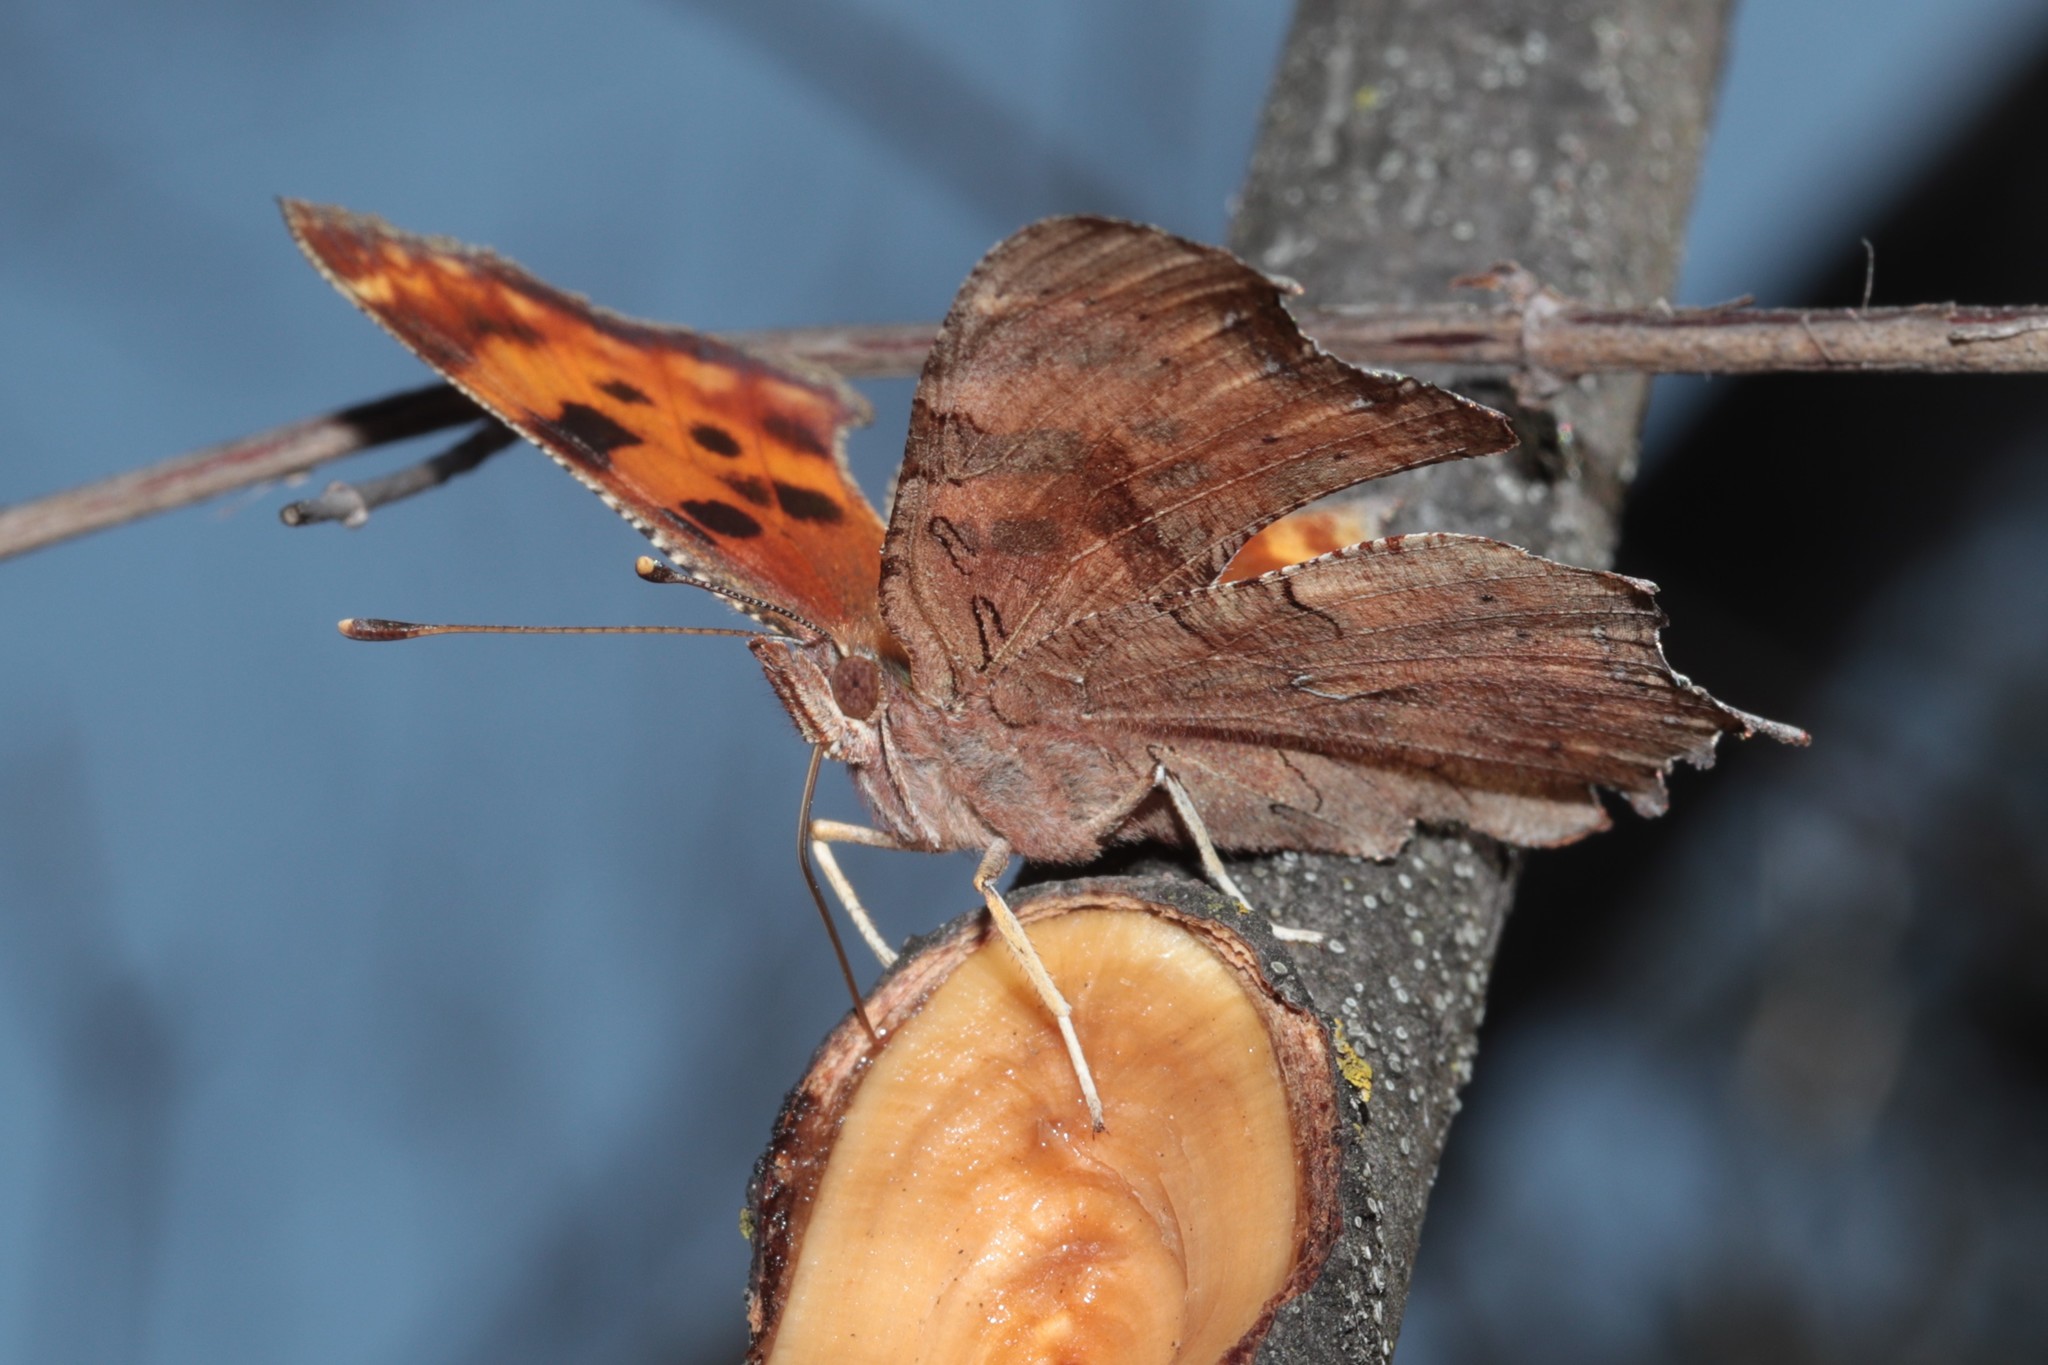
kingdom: Animalia
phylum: Arthropoda
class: Insecta
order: Lepidoptera
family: Nymphalidae
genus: Polygonia
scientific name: Polygonia satyrus
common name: Satyr angle wing
